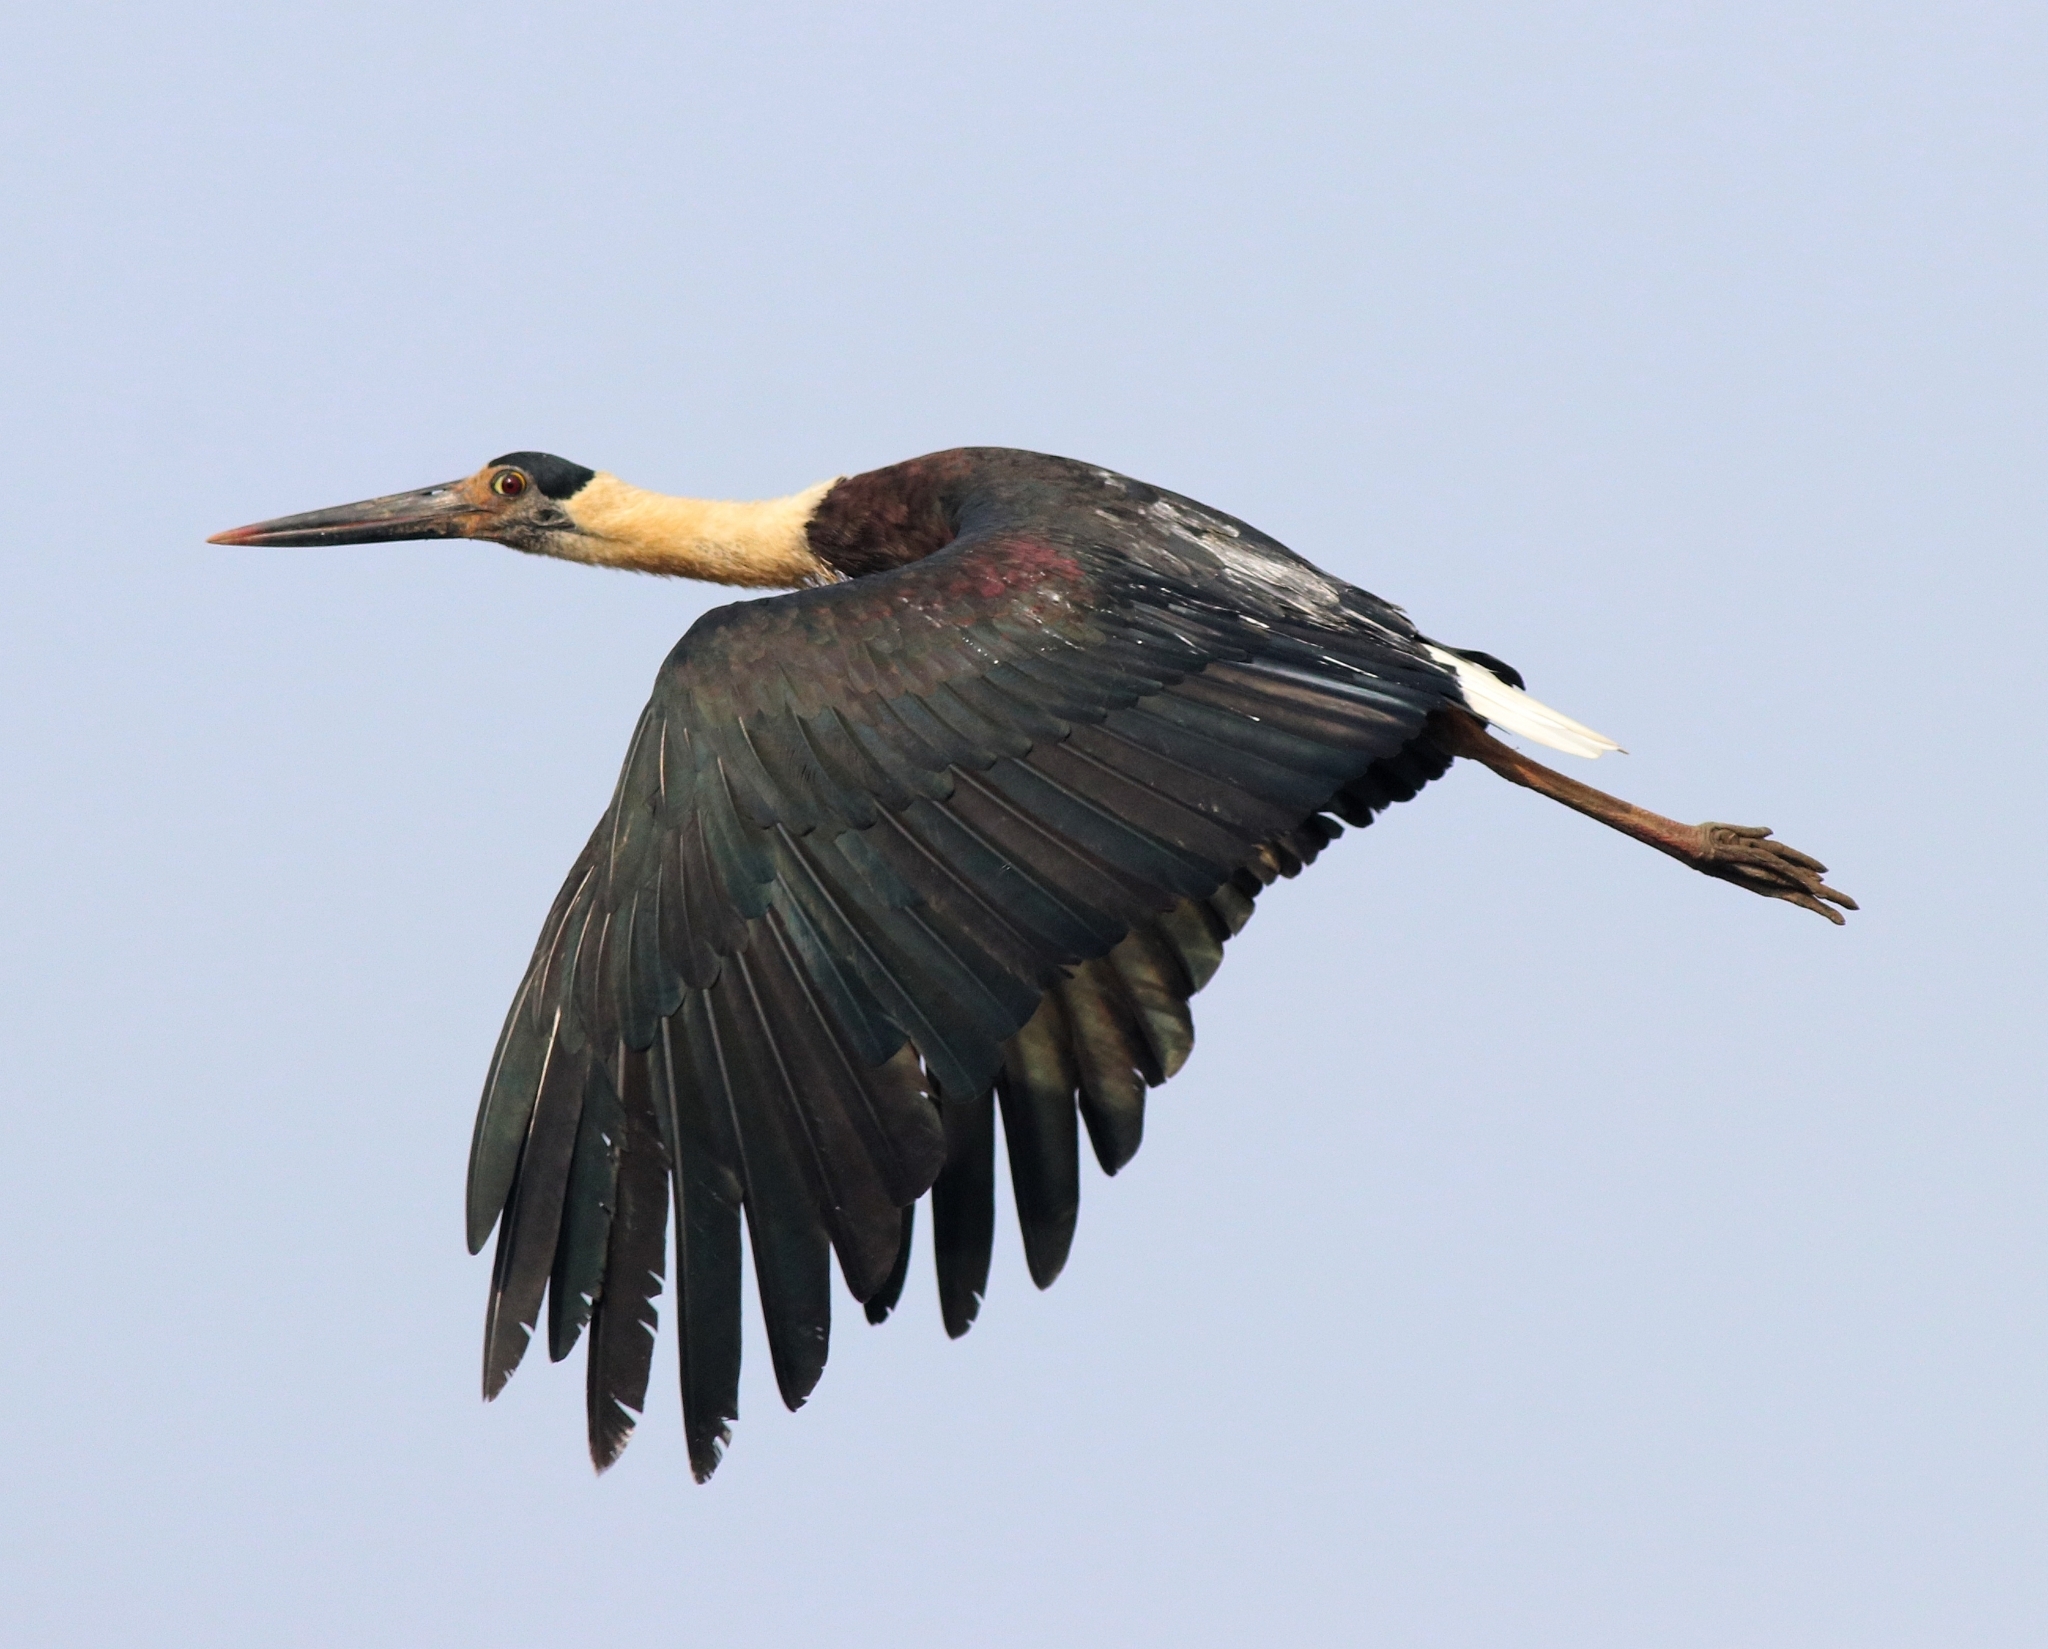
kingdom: Animalia
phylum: Chordata
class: Aves
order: Ciconiiformes
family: Ciconiidae
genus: Ciconia
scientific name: Ciconia episcopus
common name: Woolly-necked stork
